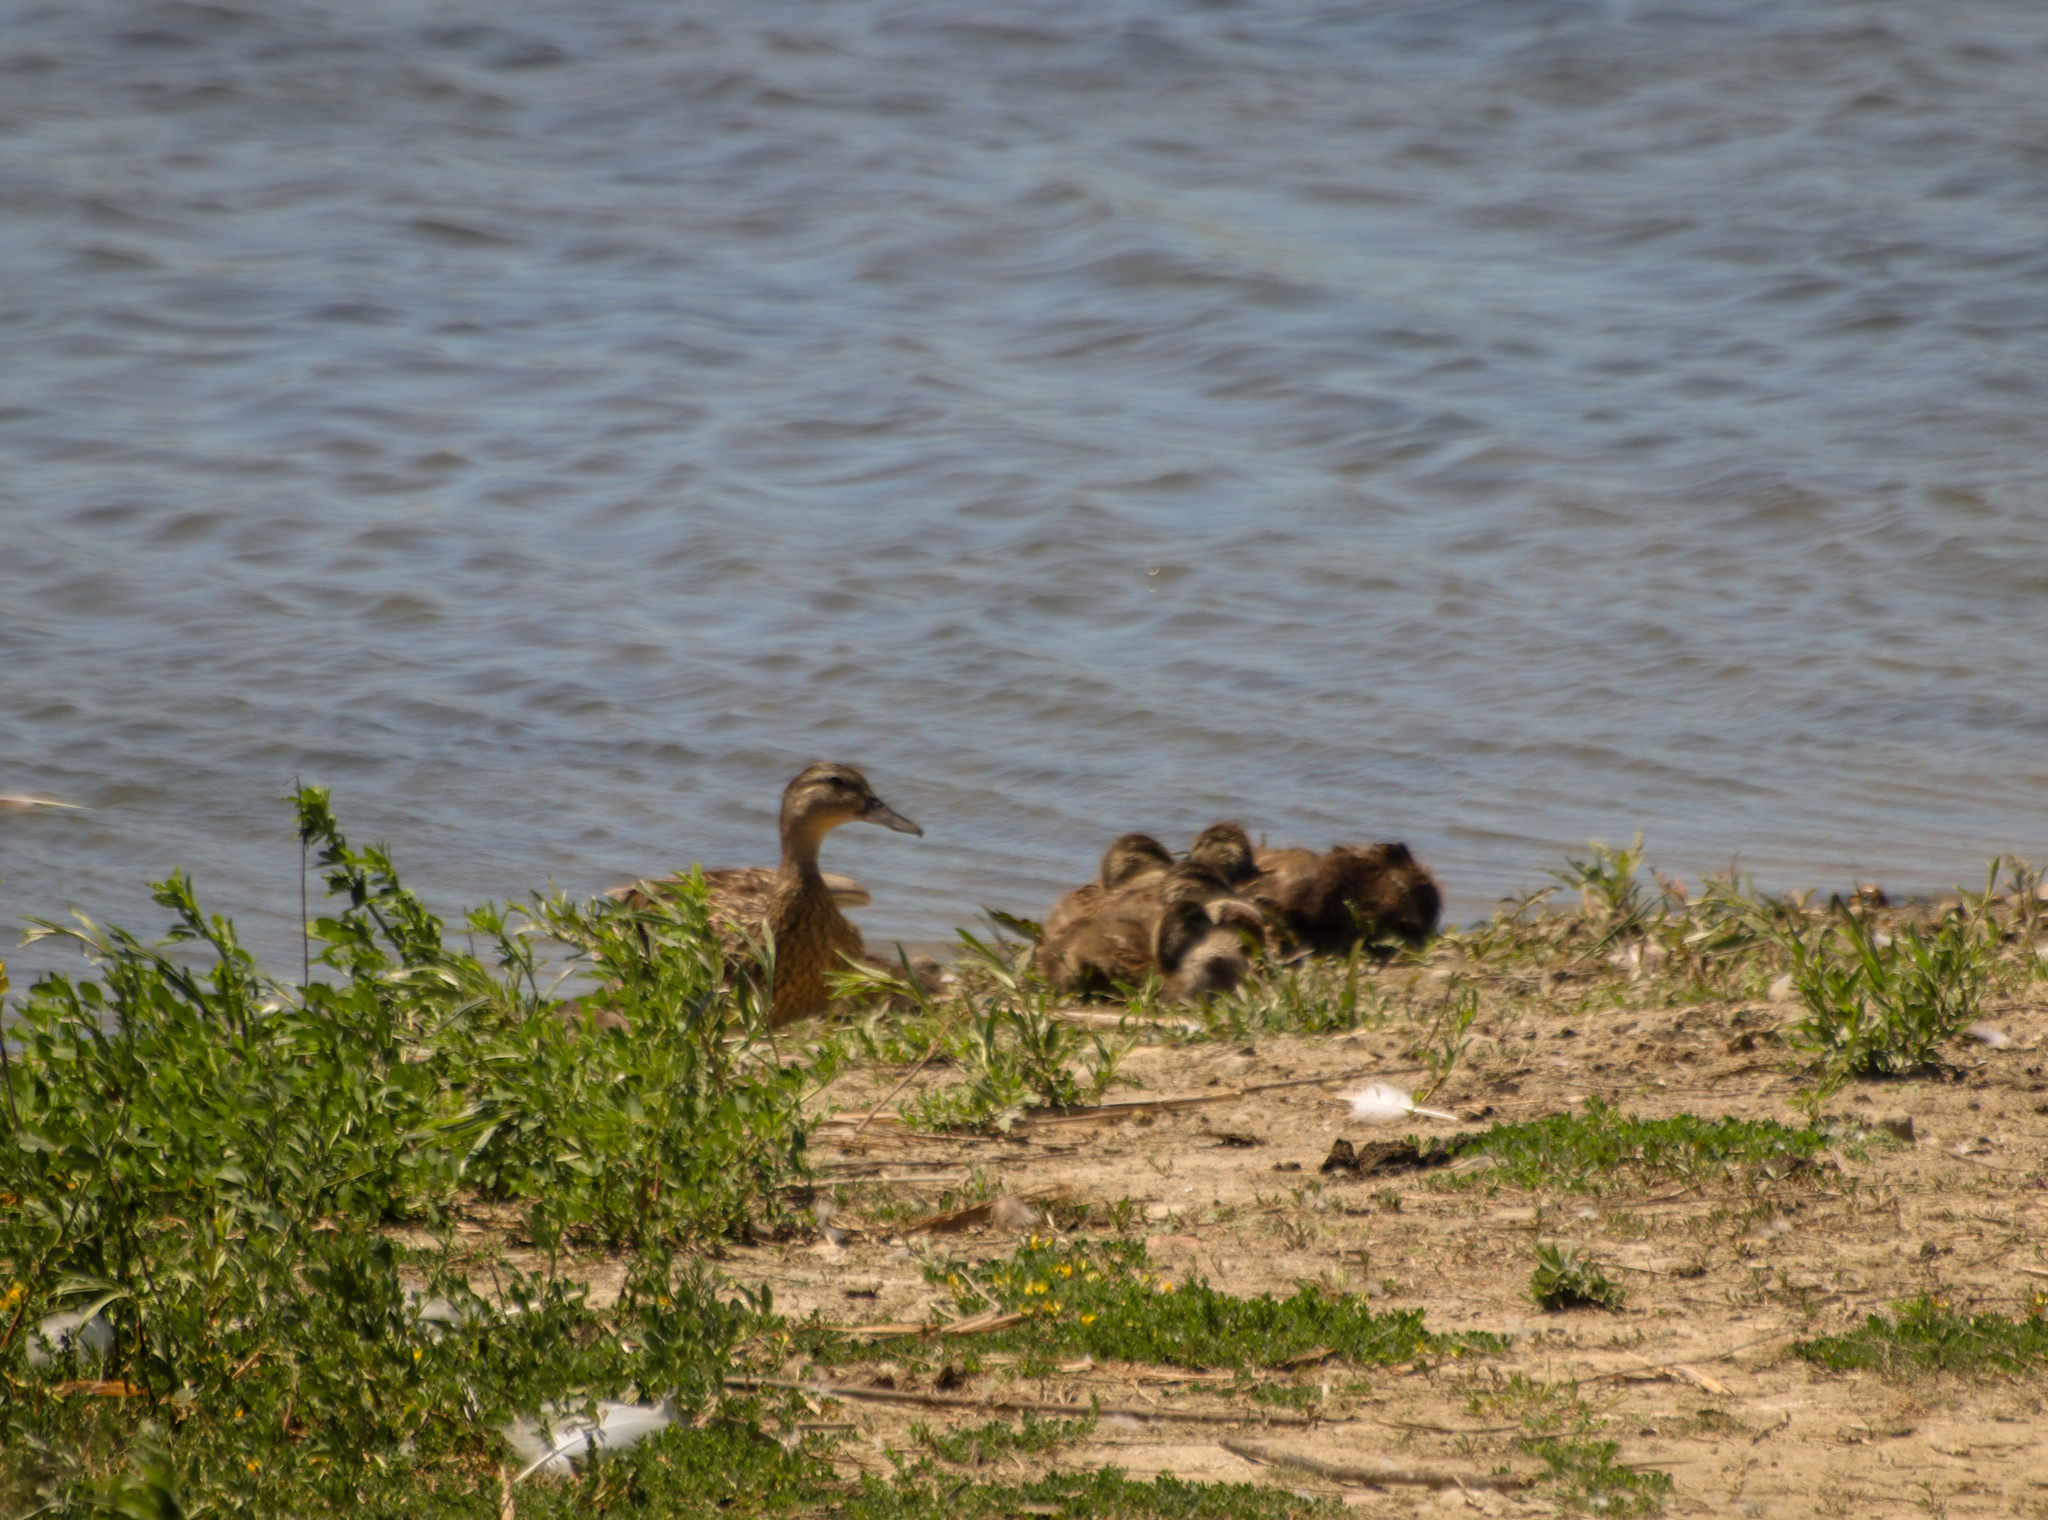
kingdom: Animalia
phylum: Chordata
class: Aves
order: Anseriformes
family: Anatidae
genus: Anas
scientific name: Anas platyrhynchos
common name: Mallard
